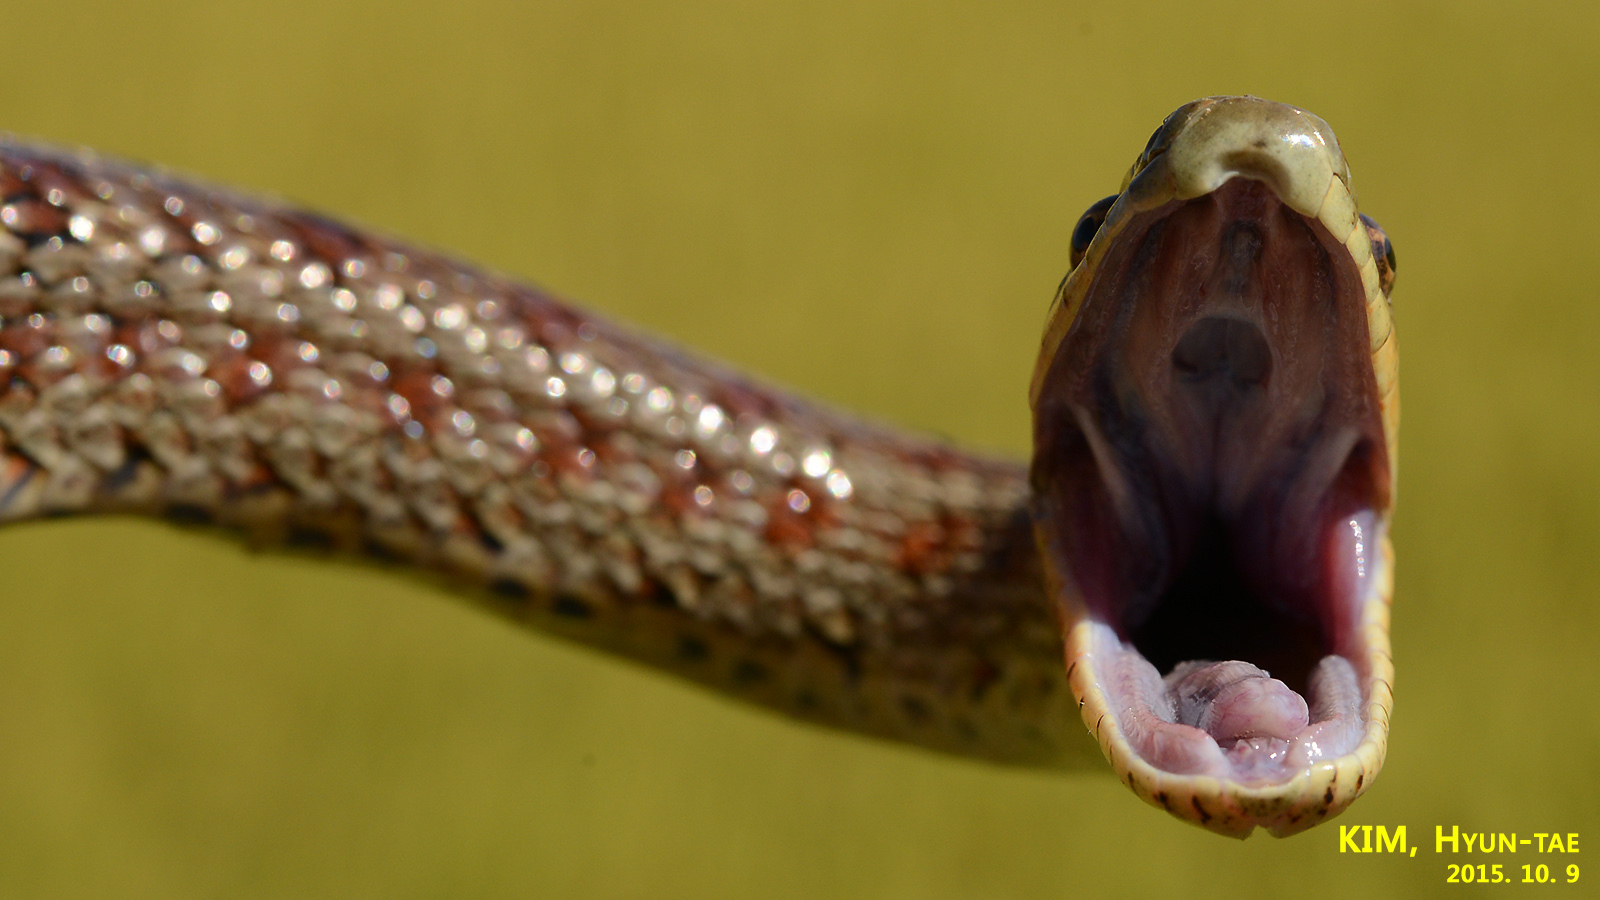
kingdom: Animalia
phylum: Chordata
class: Squamata
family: Colubridae
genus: Elaphe
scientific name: Elaphe dione
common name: Dione ratsnake
